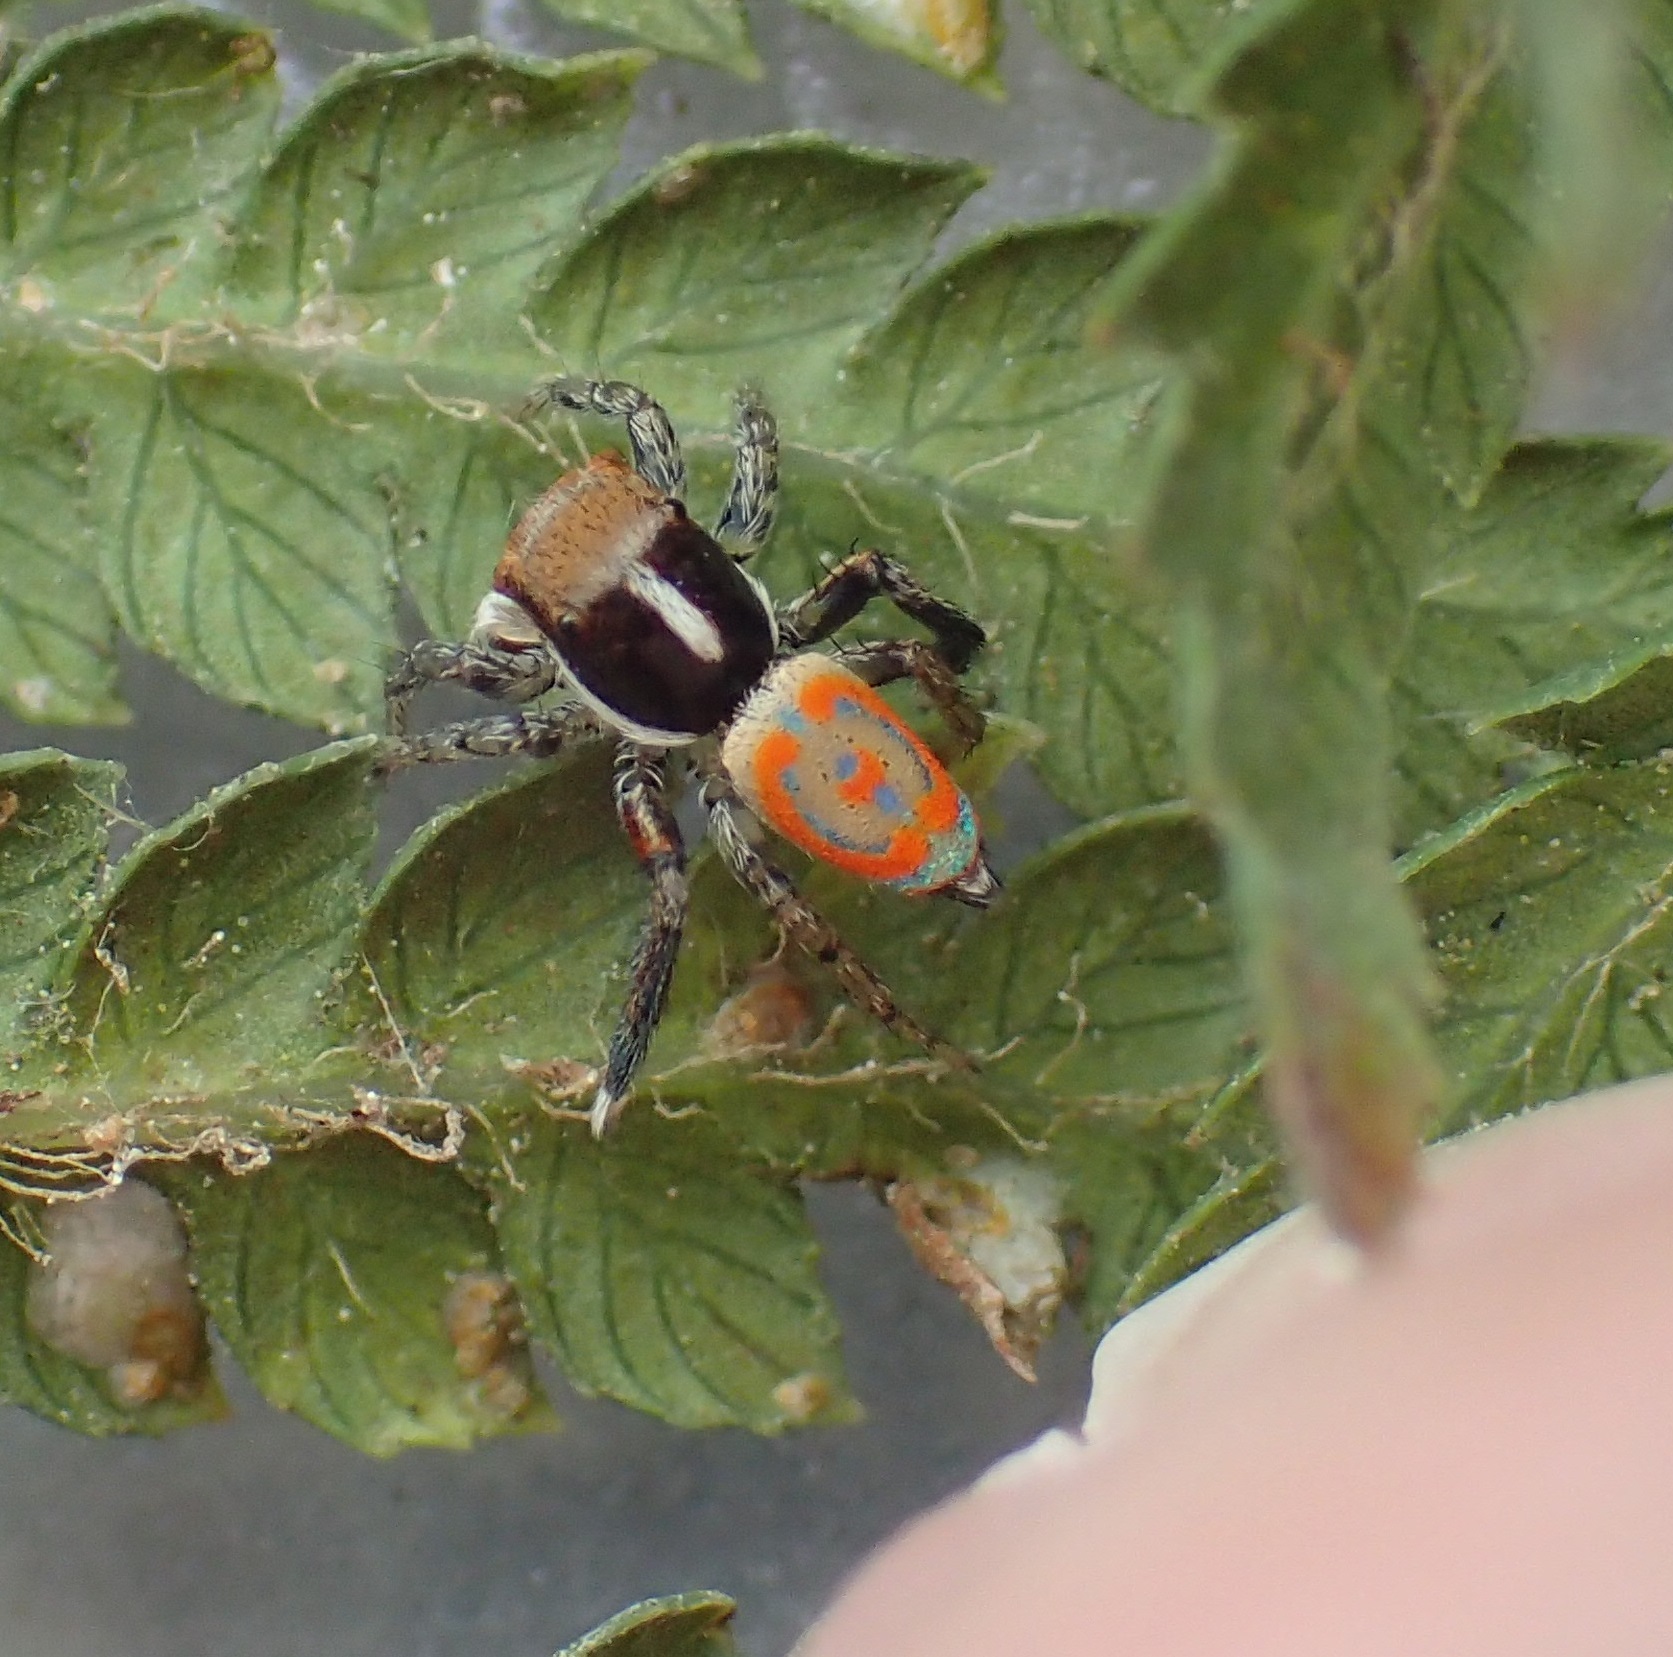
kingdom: Animalia
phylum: Arthropoda
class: Arachnida
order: Araneae
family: Salticidae
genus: Maratus
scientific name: Maratus pavonis
